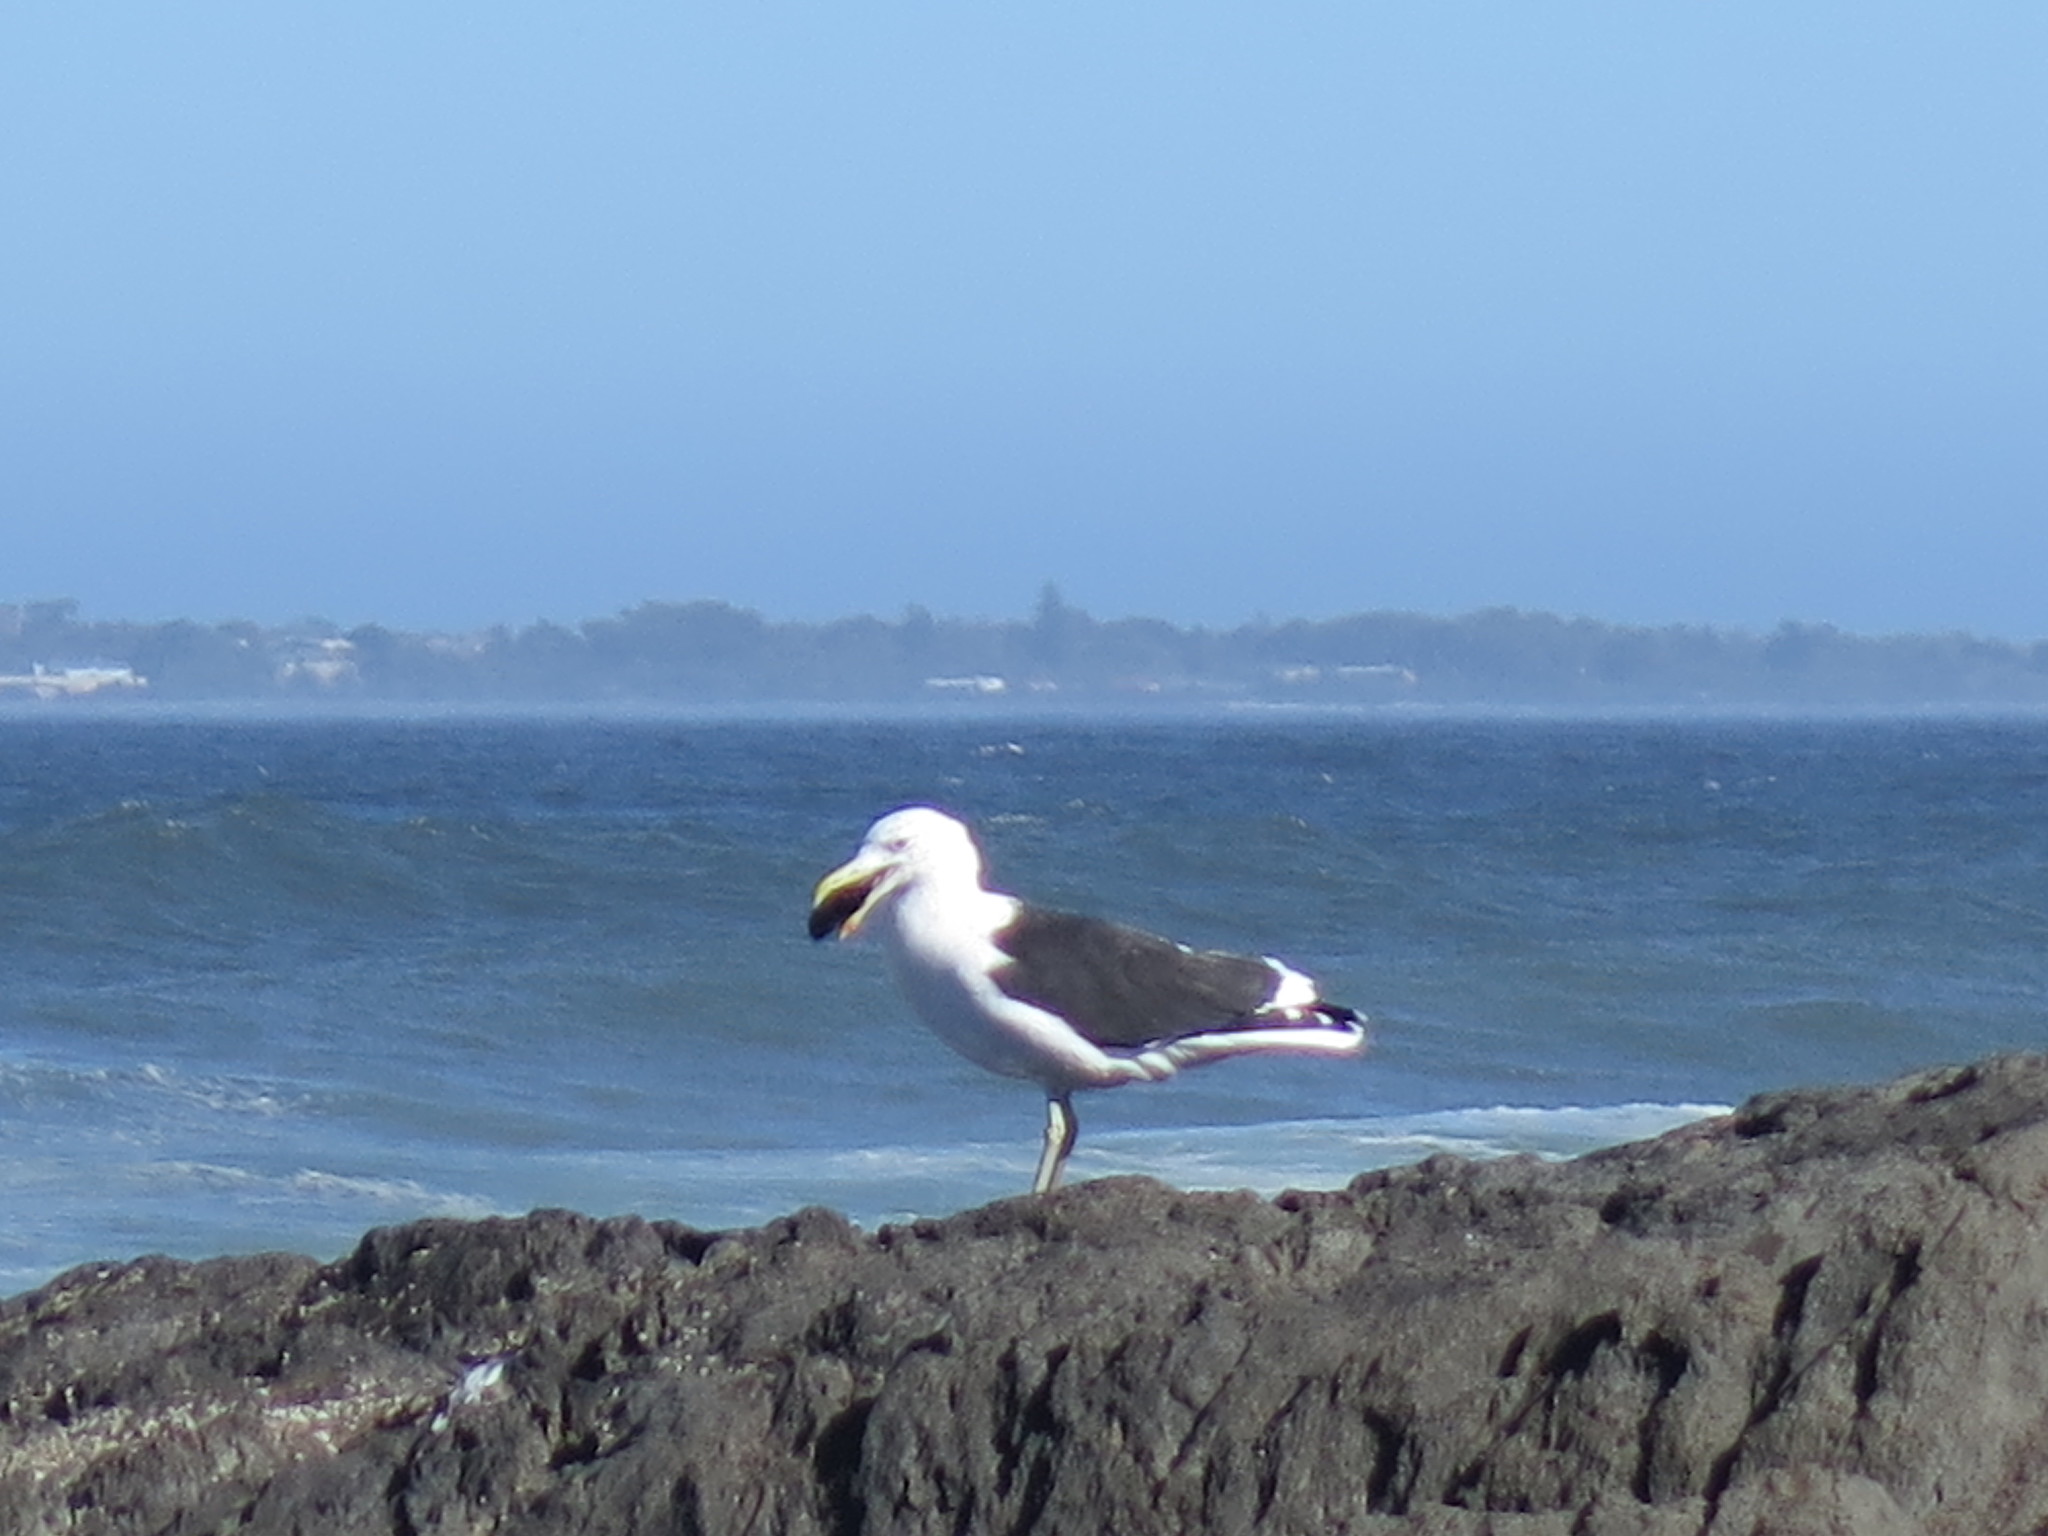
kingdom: Animalia
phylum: Chordata
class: Aves
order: Charadriiformes
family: Laridae
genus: Larus
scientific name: Larus dominicanus
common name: Kelp gull
